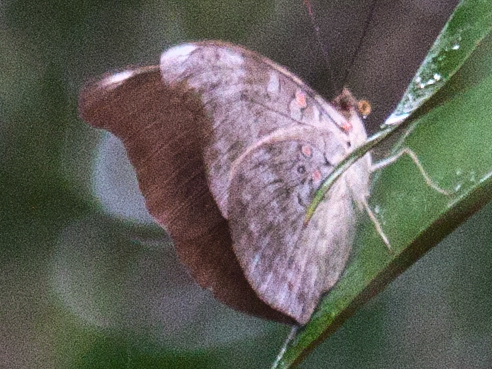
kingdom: Animalia
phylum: Arthropoda
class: Insecta
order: Lepidoptera
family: Nymphalidae
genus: Euthalia
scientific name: Euthalia Dophla evelina
